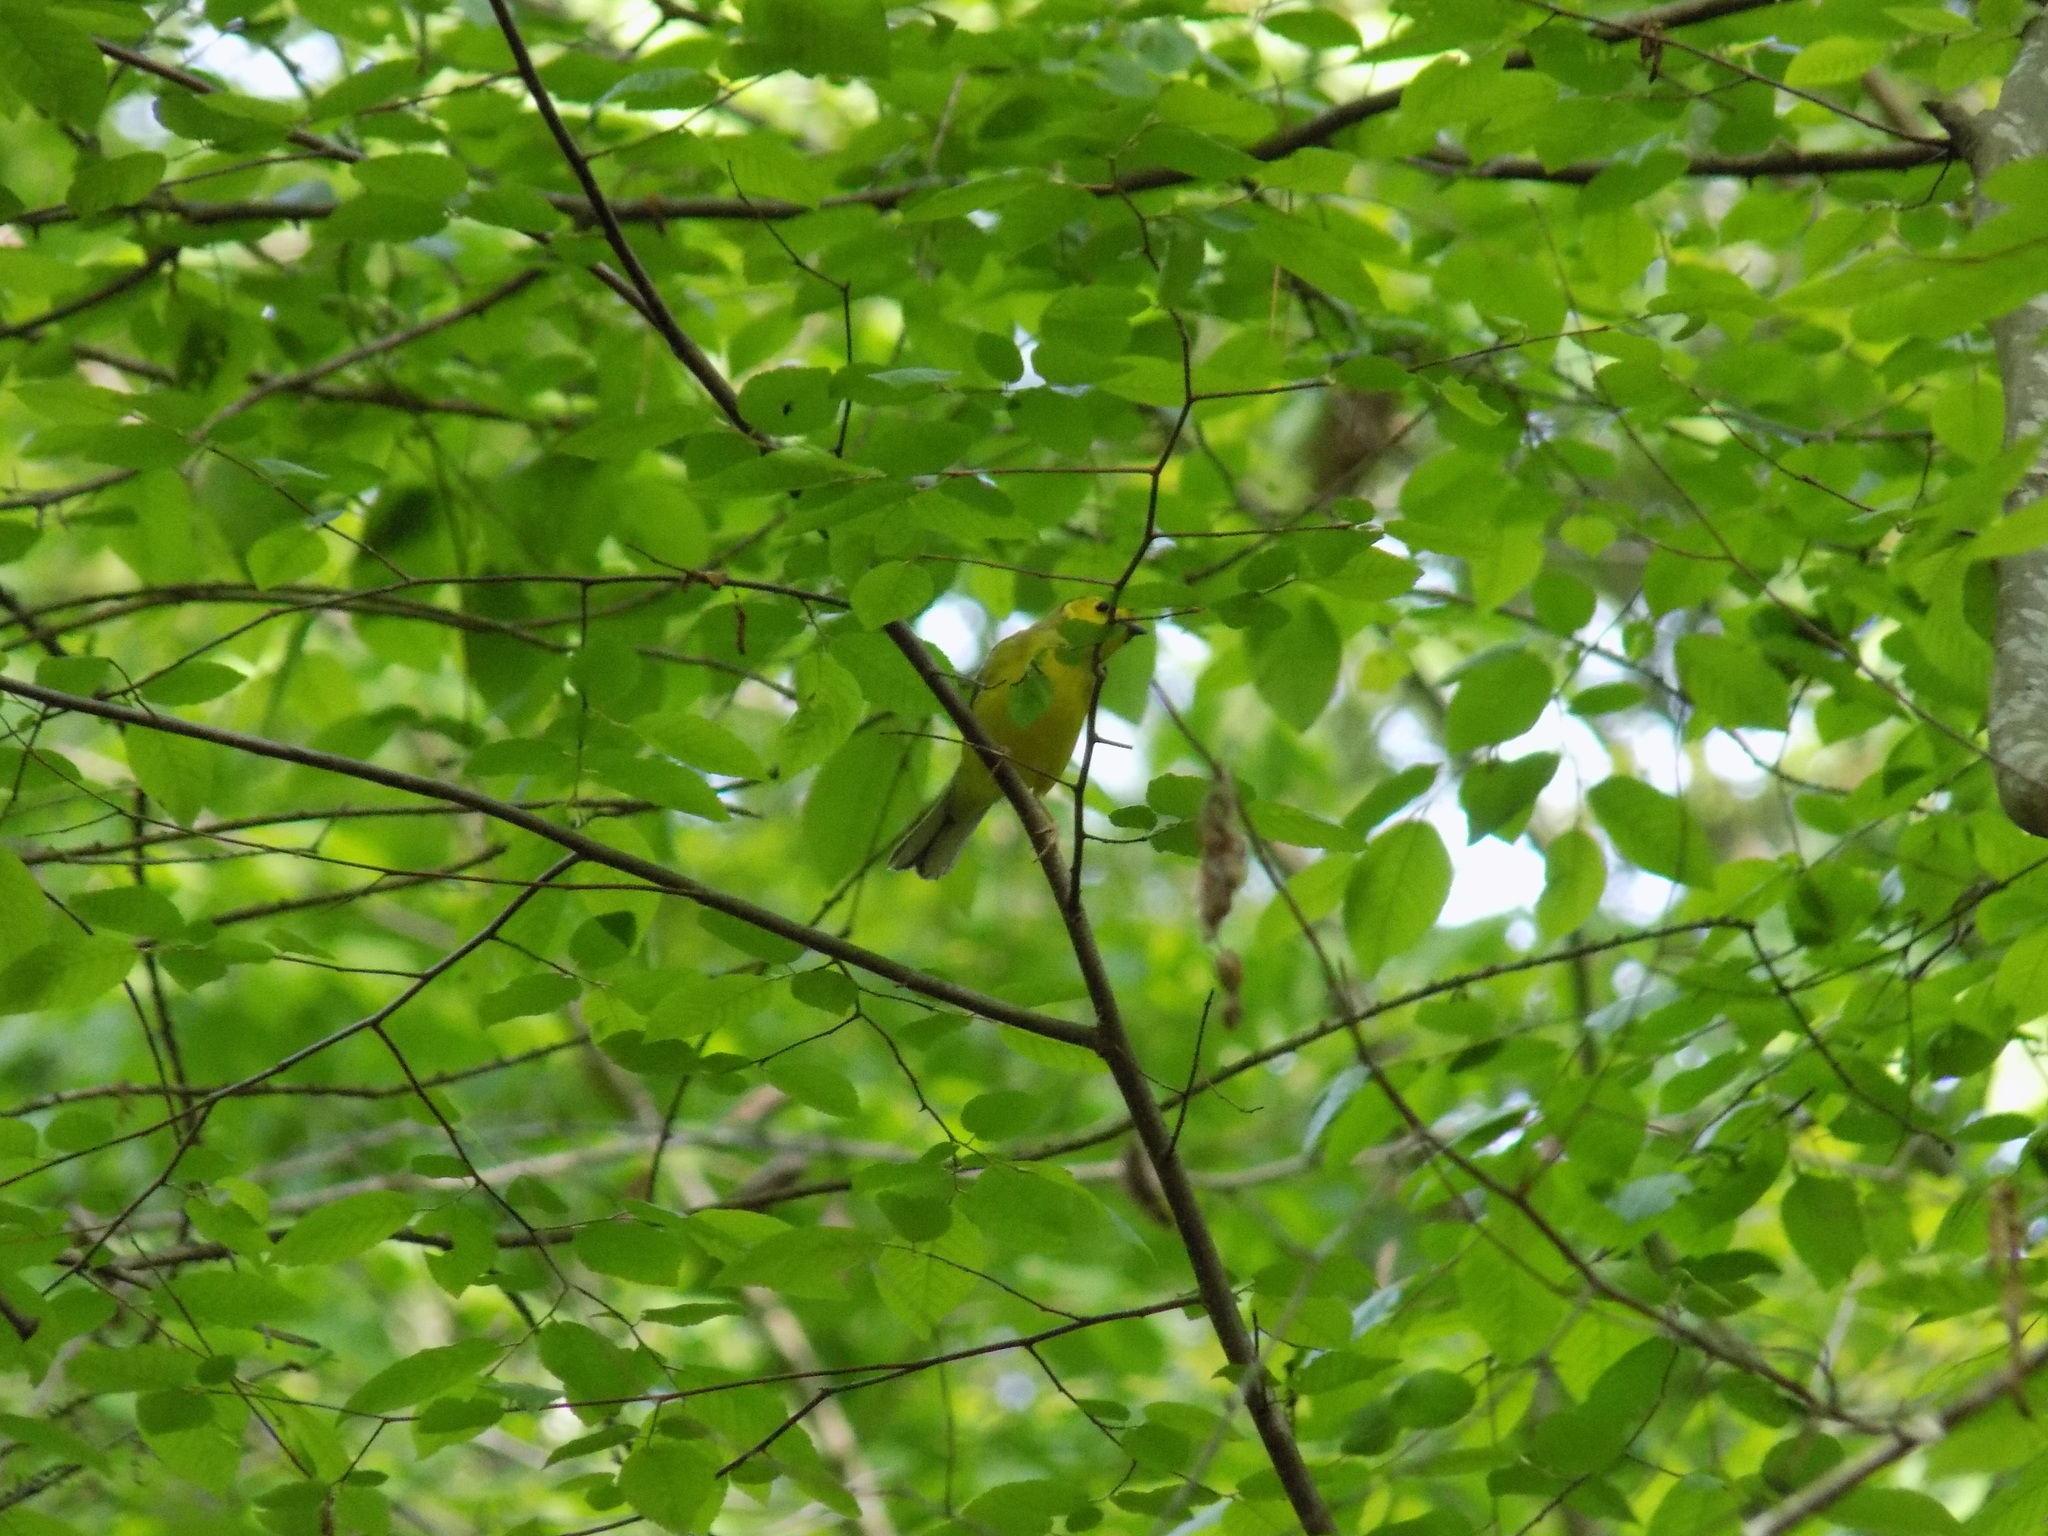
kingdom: Animalia
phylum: Chordata
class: Aves
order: Passeriformes
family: Parulidae
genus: Setophaga
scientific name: Setophaga citrina
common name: Hooded warbler
